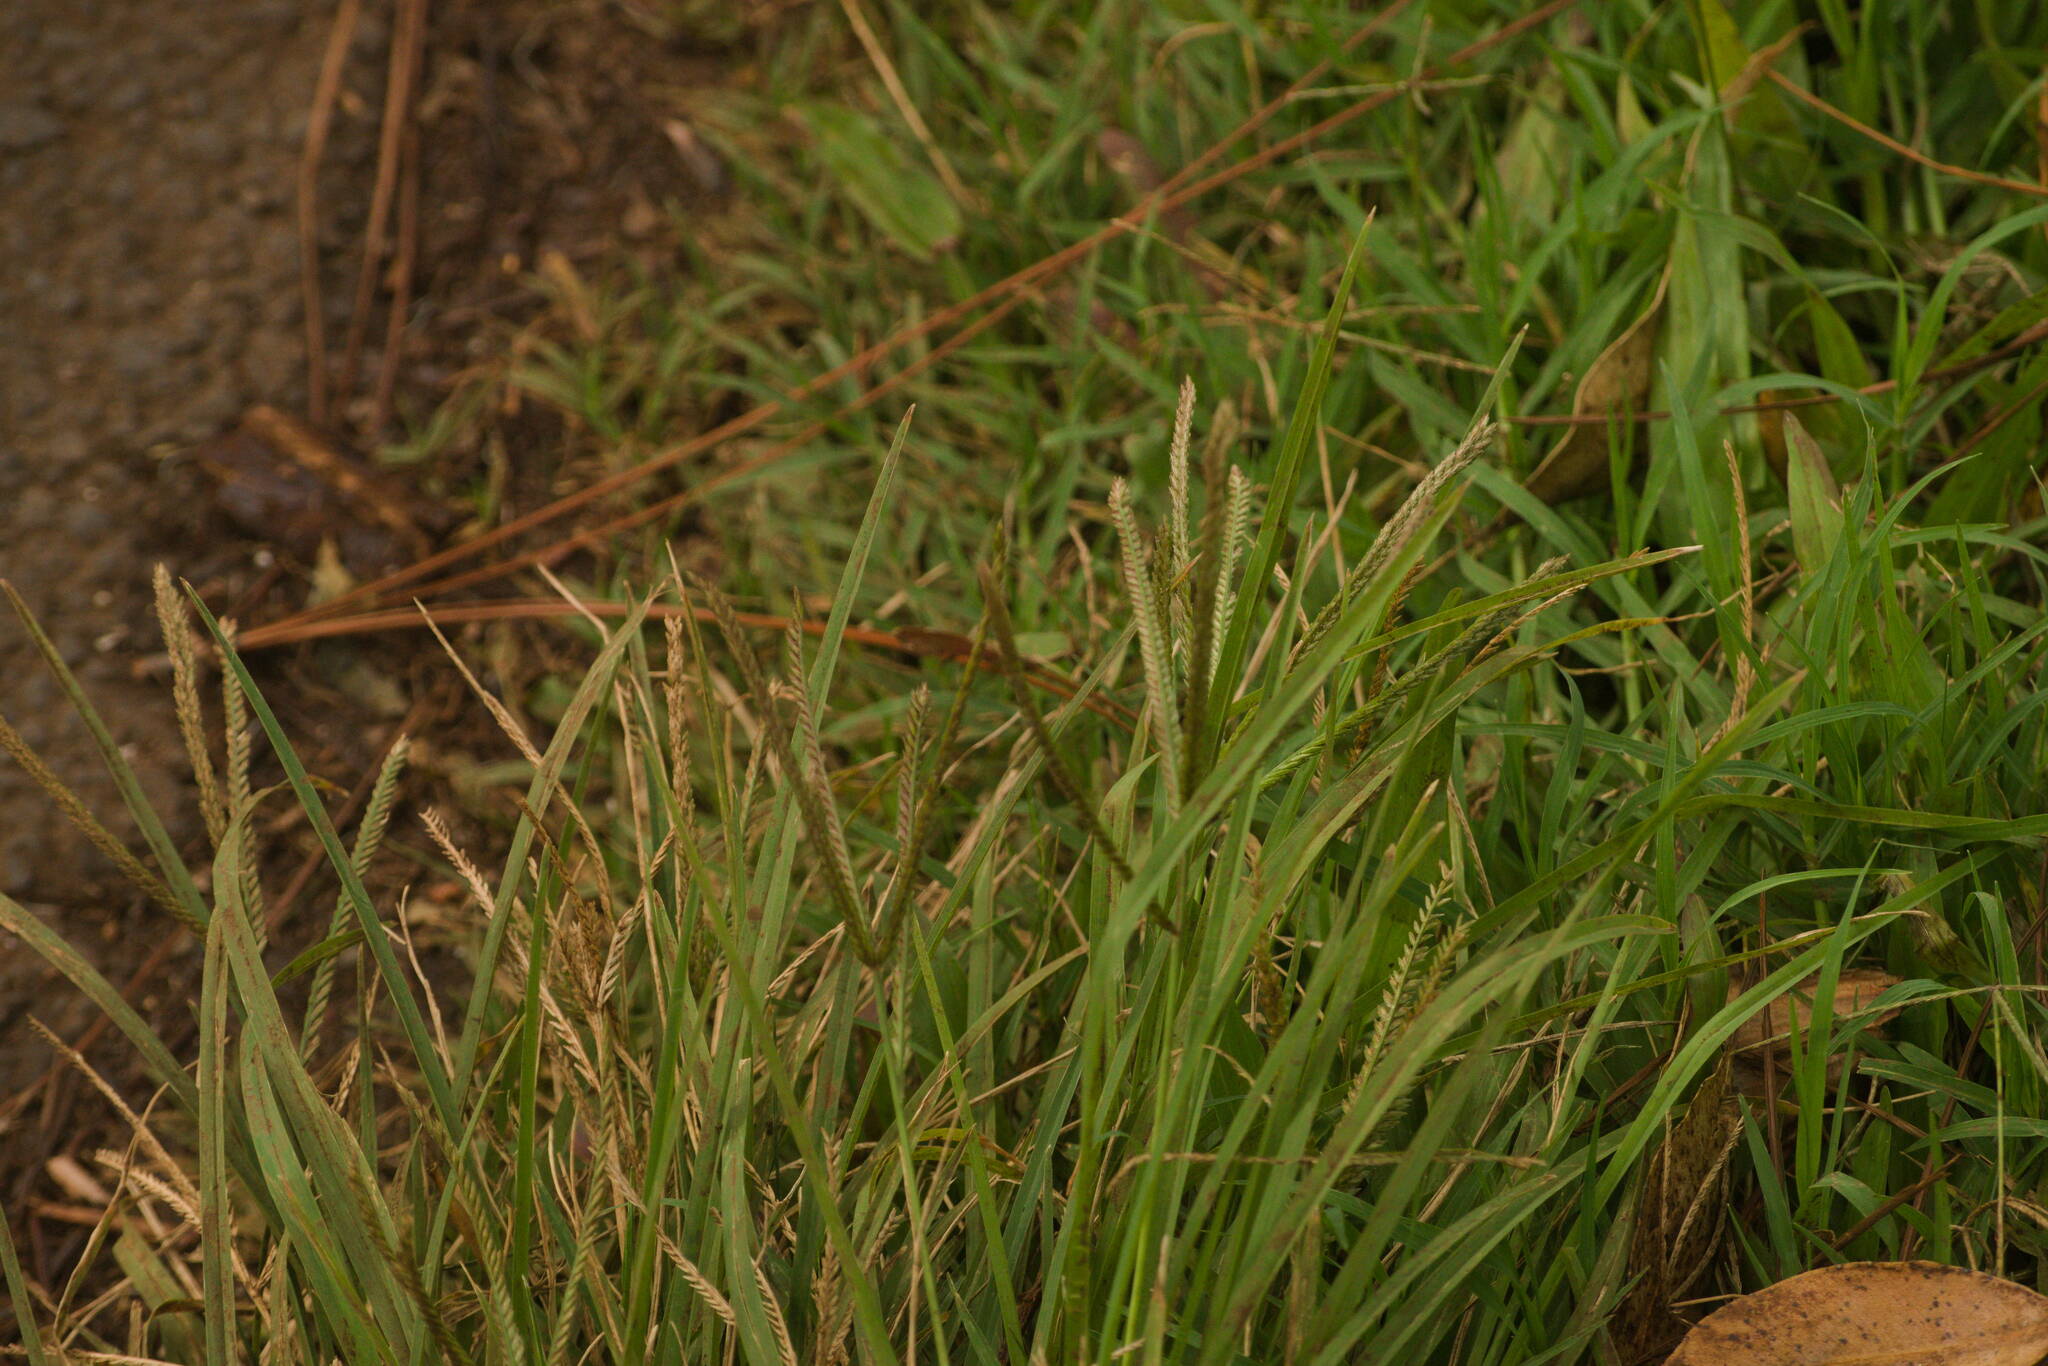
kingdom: Plantae
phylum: Tracheophyta
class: Liliopsida
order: Poales
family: Poaceae
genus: Eleusine
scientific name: Eleusine indica
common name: Yard-grass
